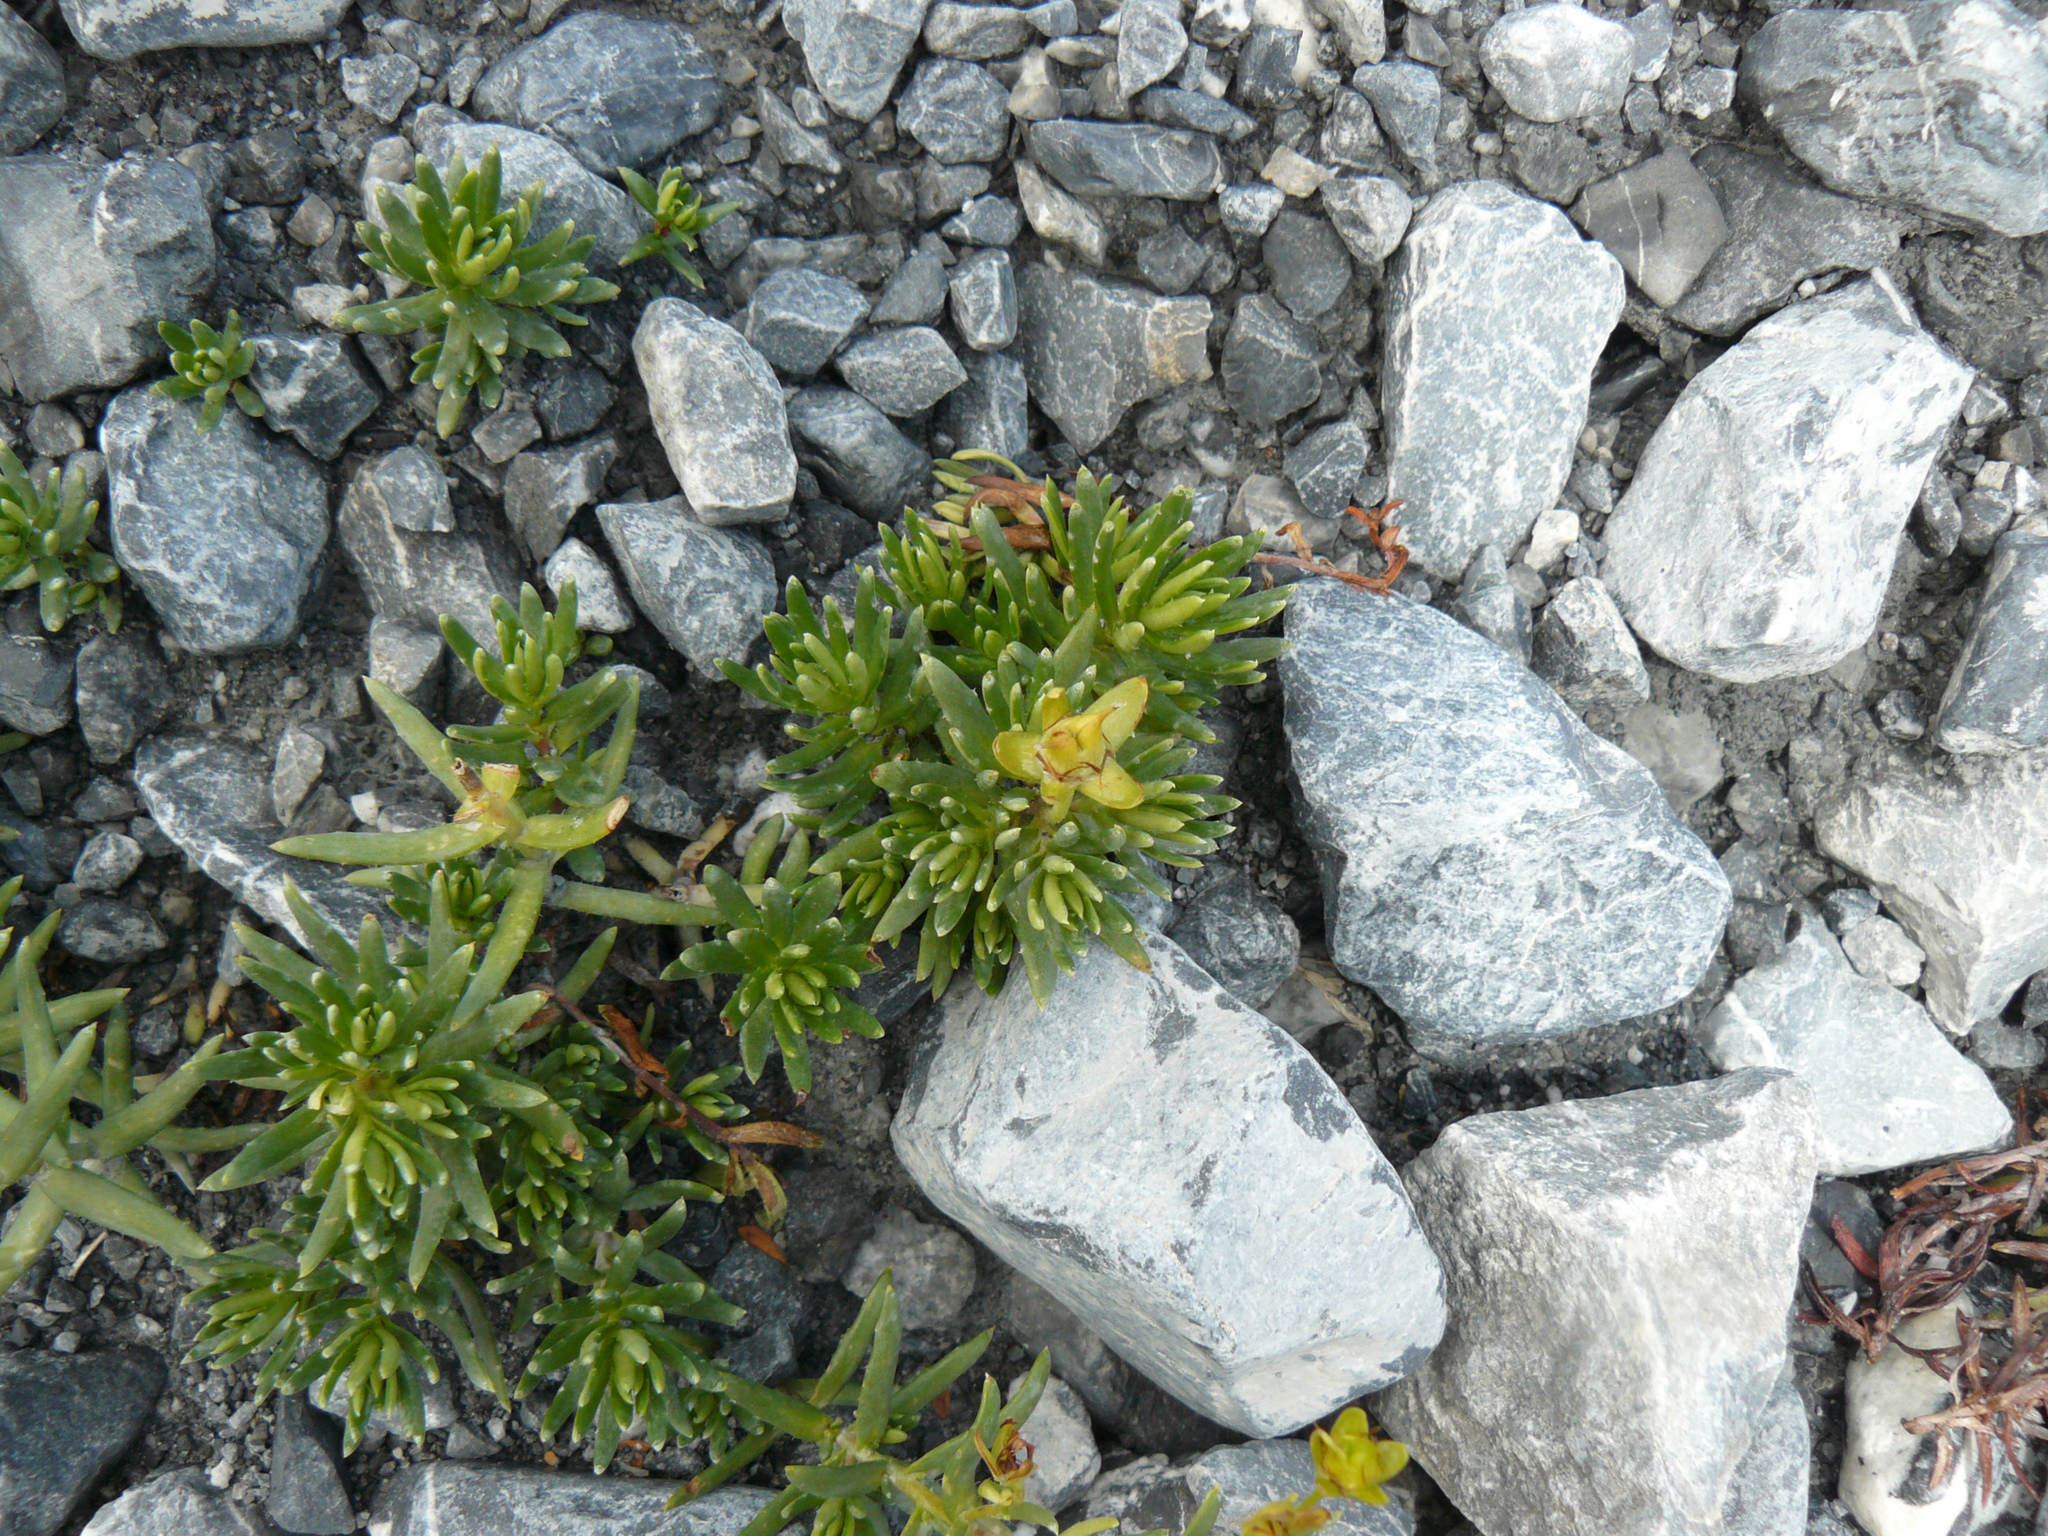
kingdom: Plantae
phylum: Tracheophyta
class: Magnoliopsida
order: Saxifragales
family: Saxifragaceae
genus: Saxifraga
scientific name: Saxifraga aizoides
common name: Yellow mountain saxifrage
